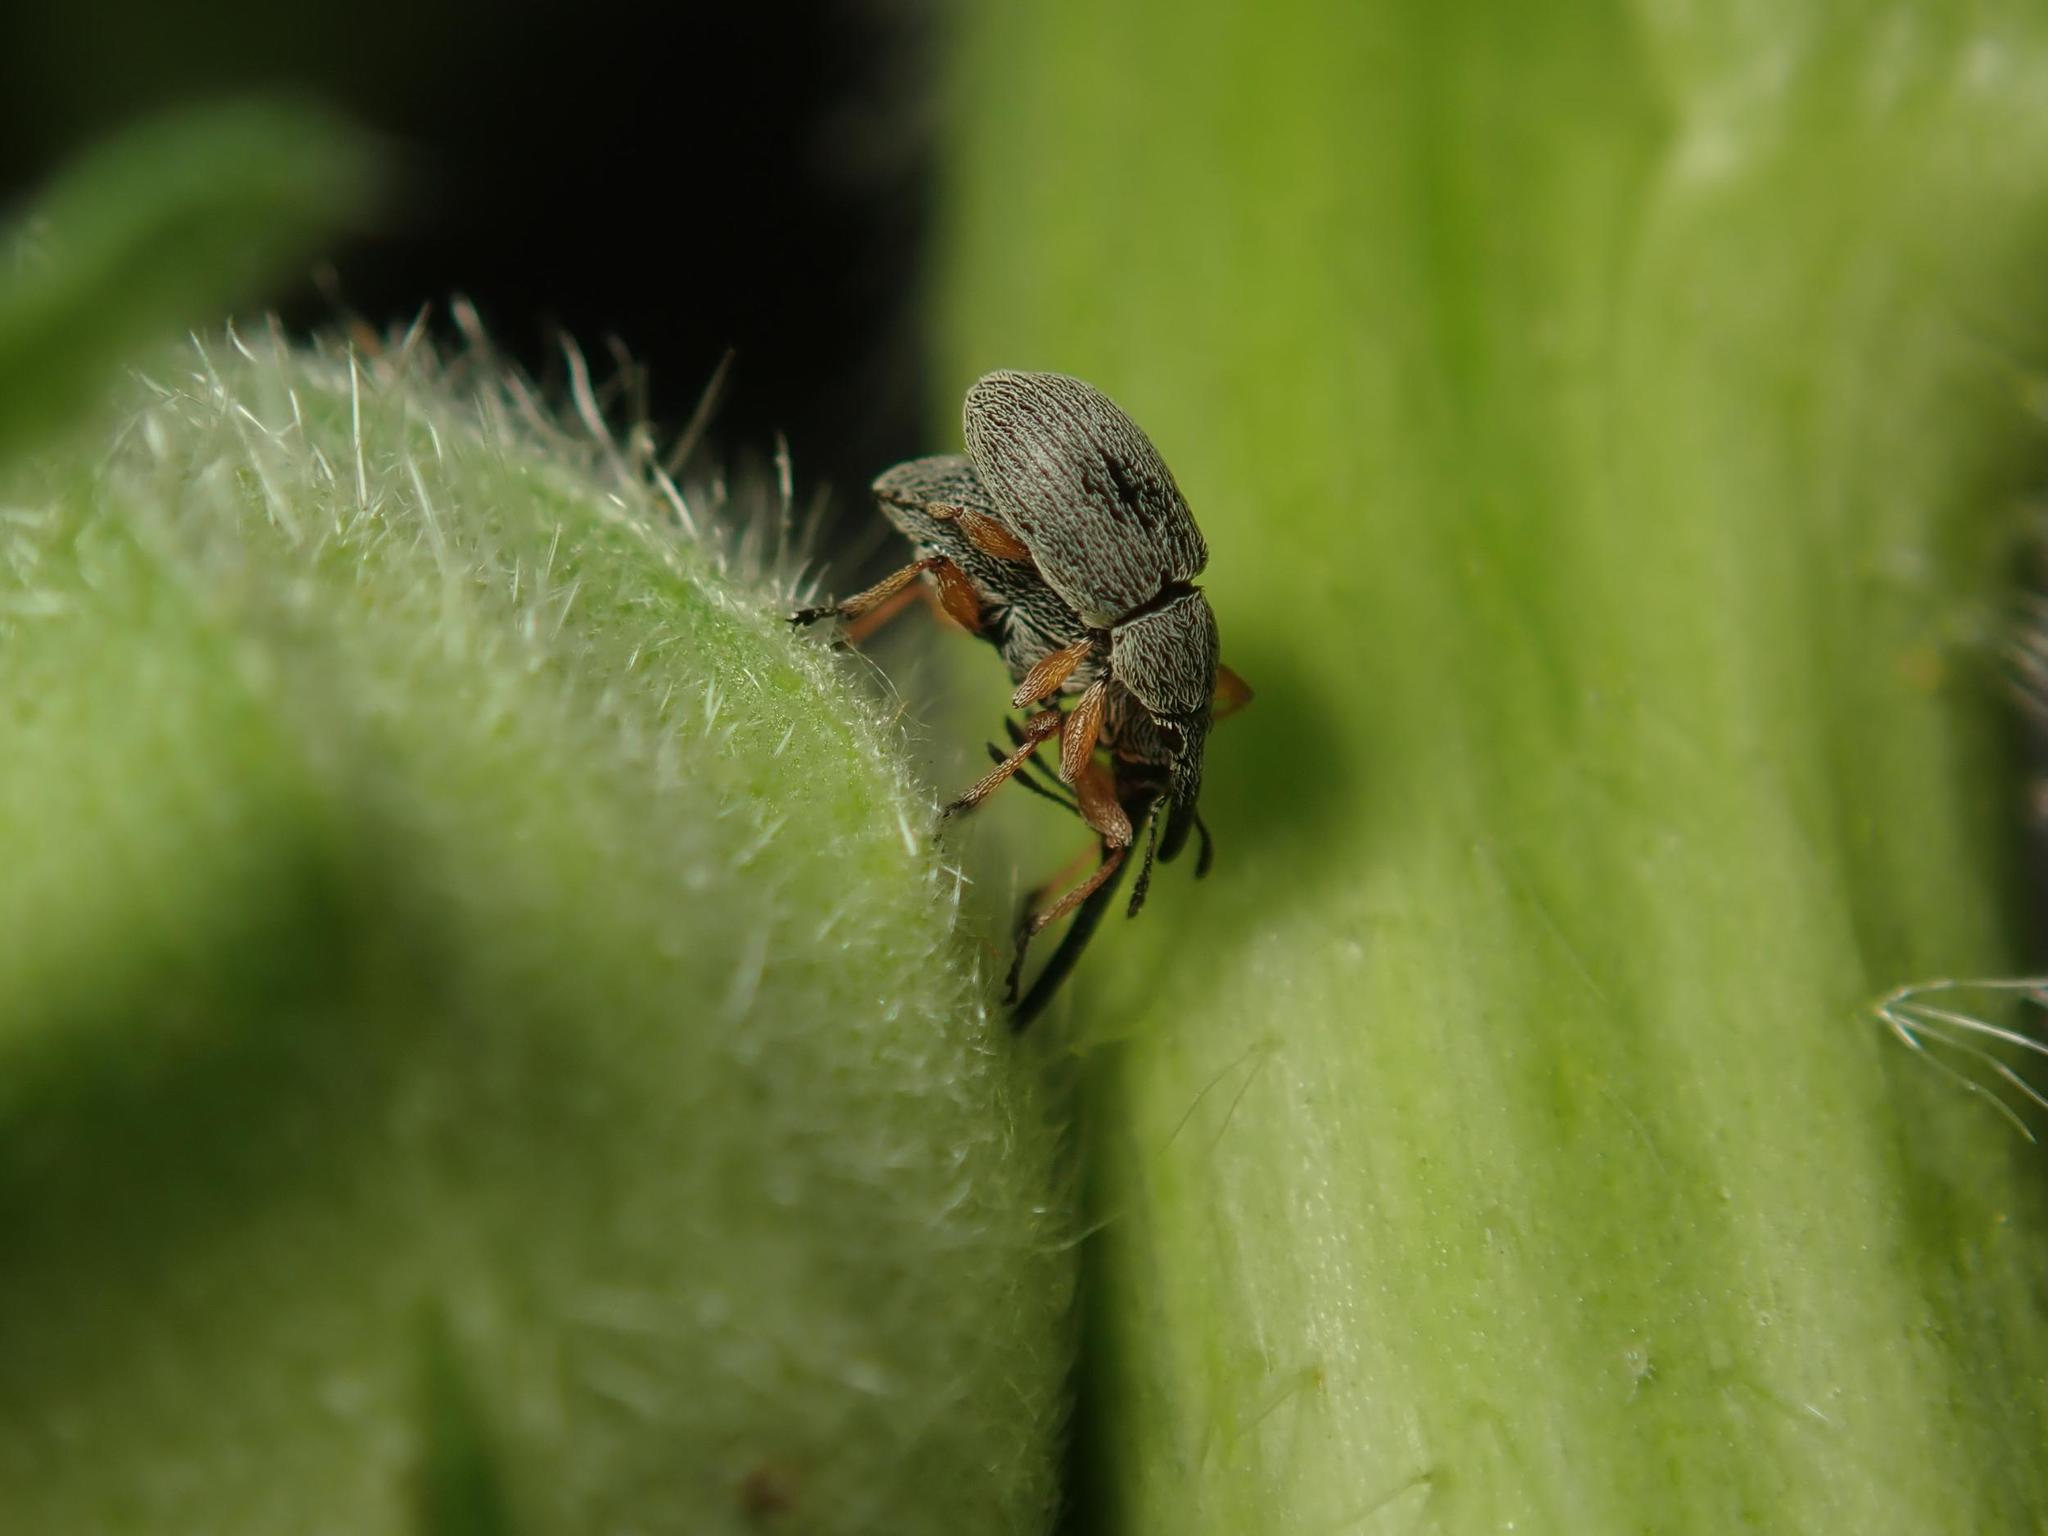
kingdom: Animalia
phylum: Arthropoda
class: Insecta
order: Coleoptera
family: Brentidae
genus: Rhopalapion
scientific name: Rhopalapion longirostre
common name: Hollyhock weevil
